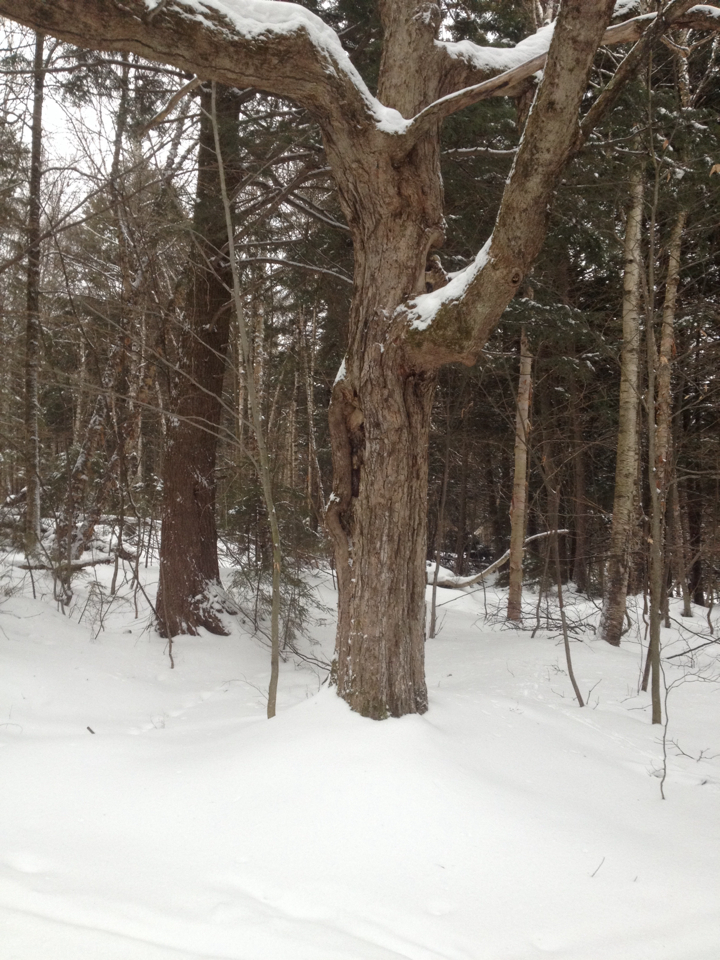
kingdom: Plantae
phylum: Tracheophyta
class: Magnoliopsida
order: Sapindales
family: Sapindaceae
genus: Acer
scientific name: Acer saccharum
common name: Sugar maple
